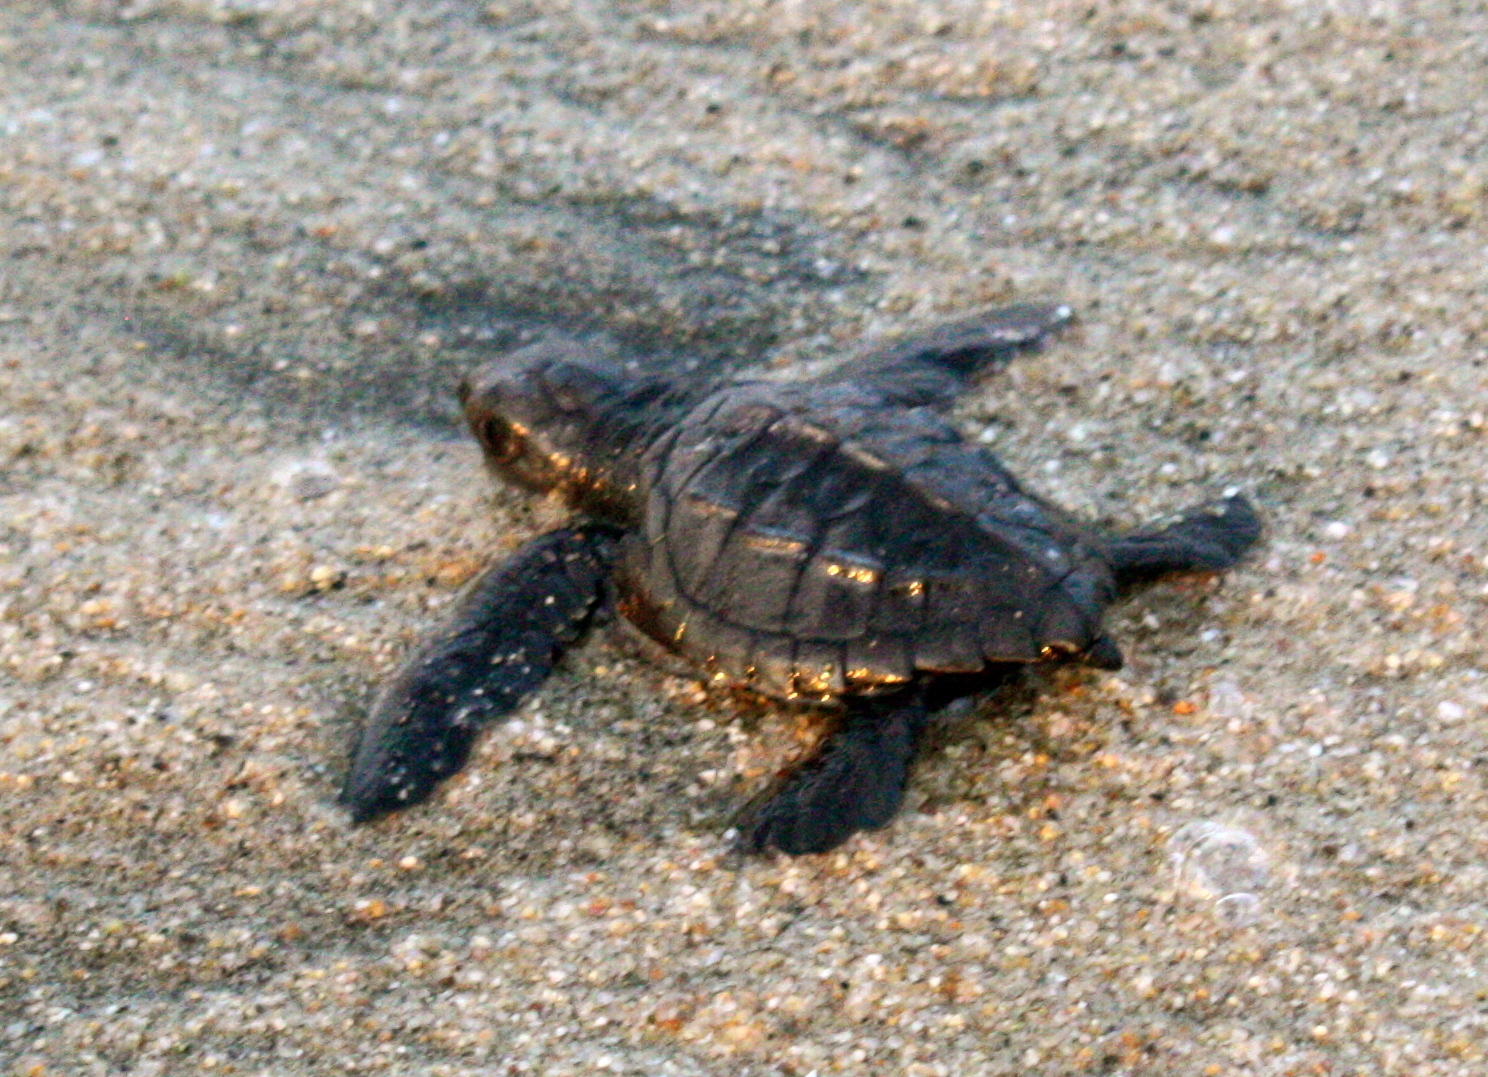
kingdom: Animalia
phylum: Chordata
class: Testudines
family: Cheloniidae
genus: Lepidochelys
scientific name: Lepidochelys olivacea
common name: Olive ridley
